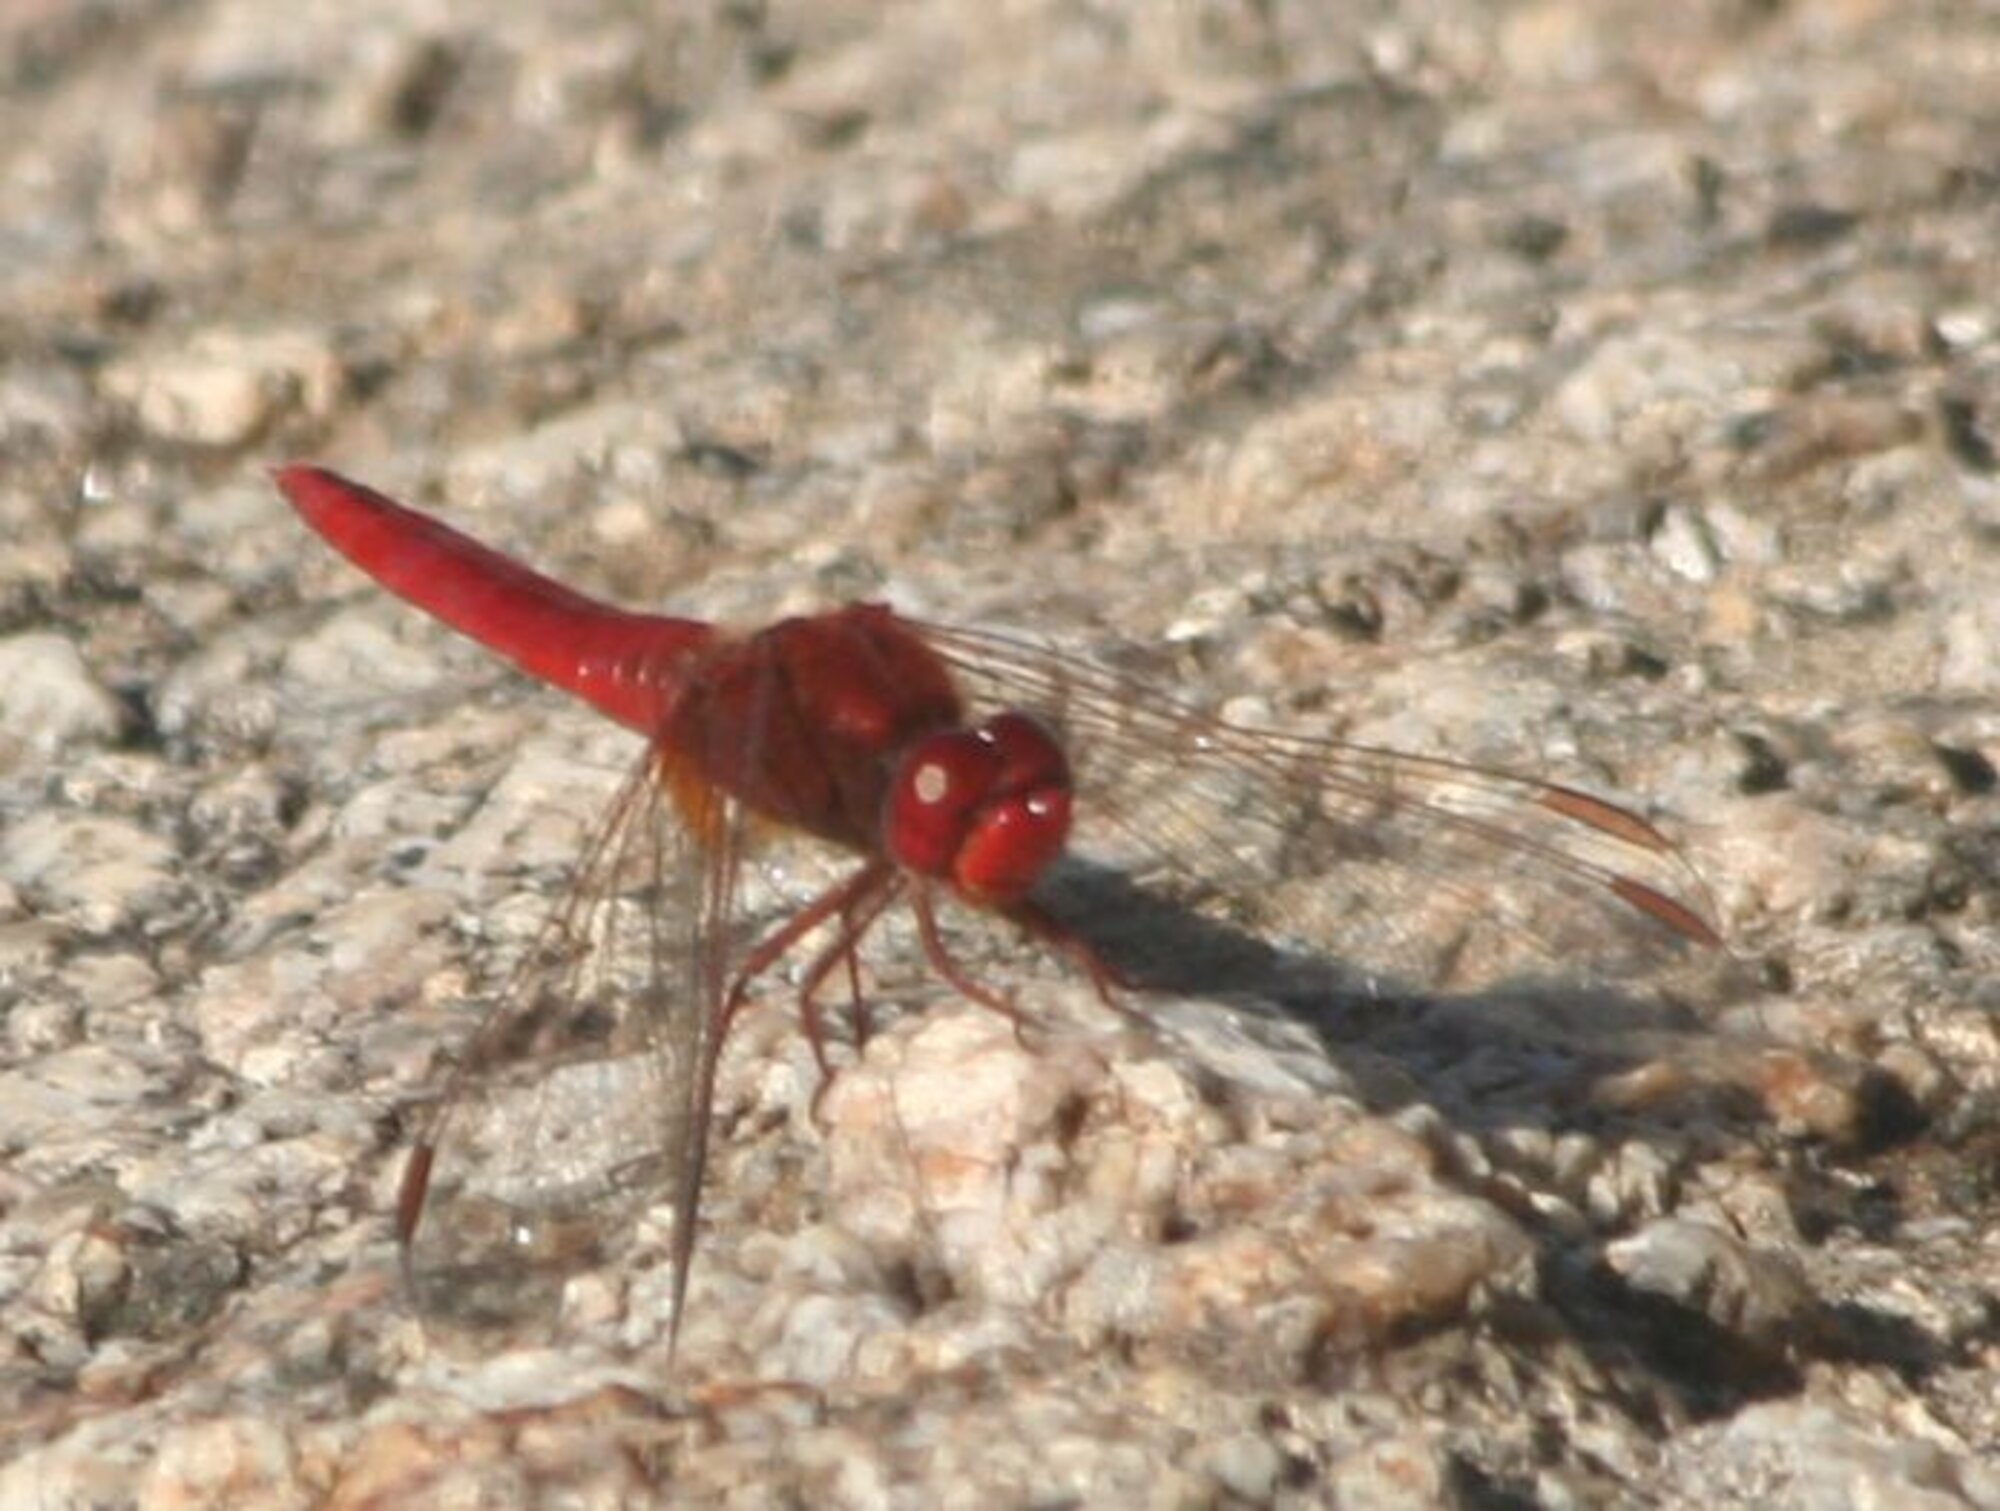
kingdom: Animalia
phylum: Arthropoda
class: Insecta
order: Odonata
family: Libellulidae
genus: Crocothemis
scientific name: Crocothemis erythraea
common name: Scarlet dragonfly
